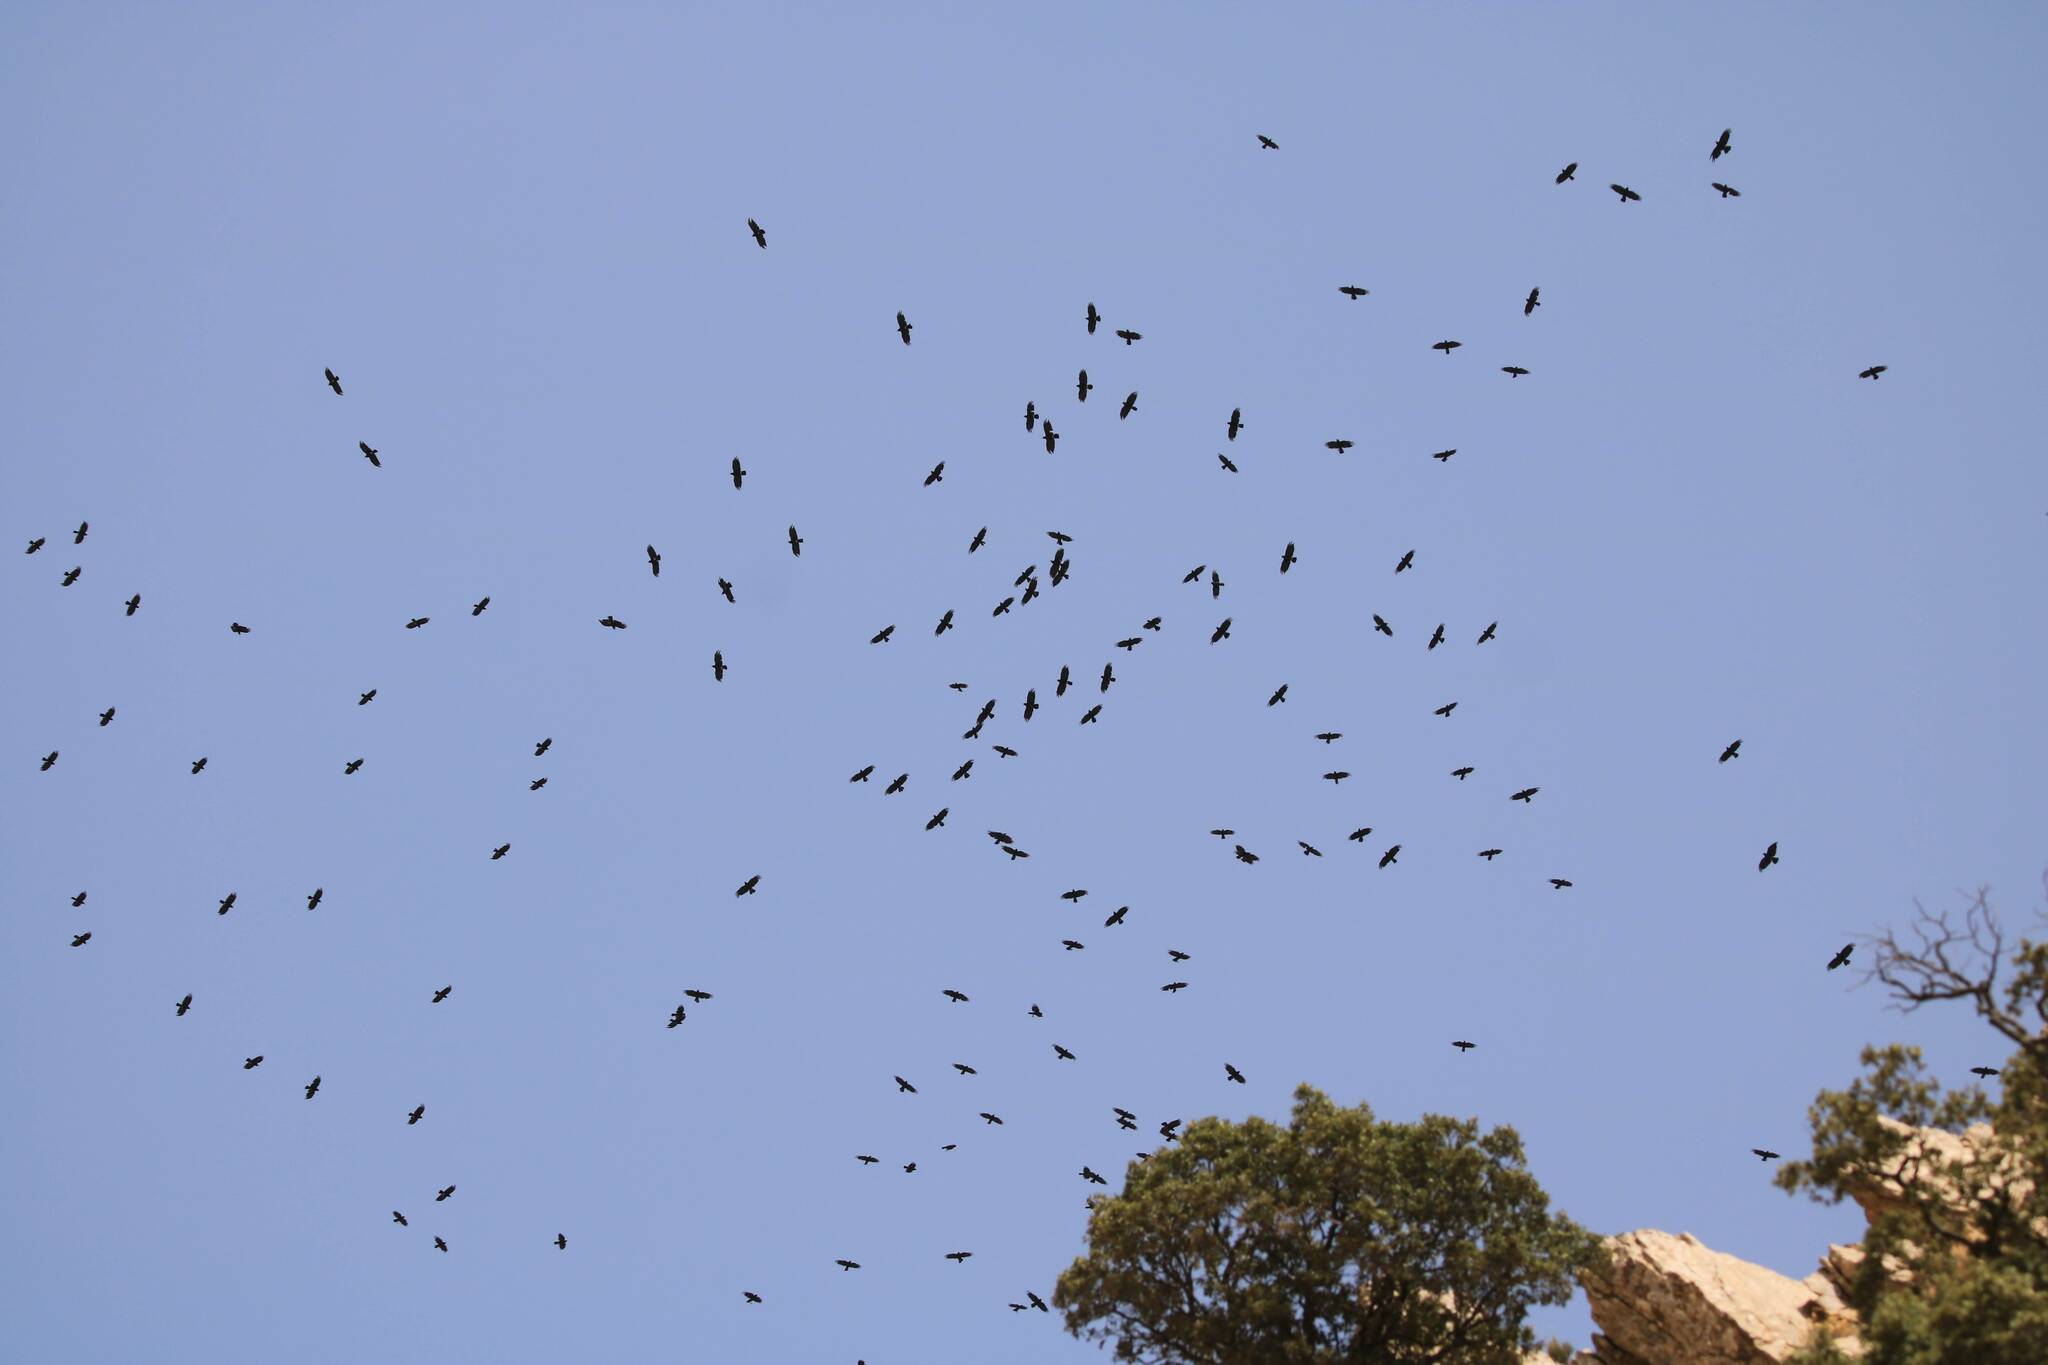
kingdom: Animalia
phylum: Chordata
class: Aves
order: Passeriformes
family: Corvidae
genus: Pyrrhocorax
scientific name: Pyrrhocorax pyrrhocorax
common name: Red-billed chough
